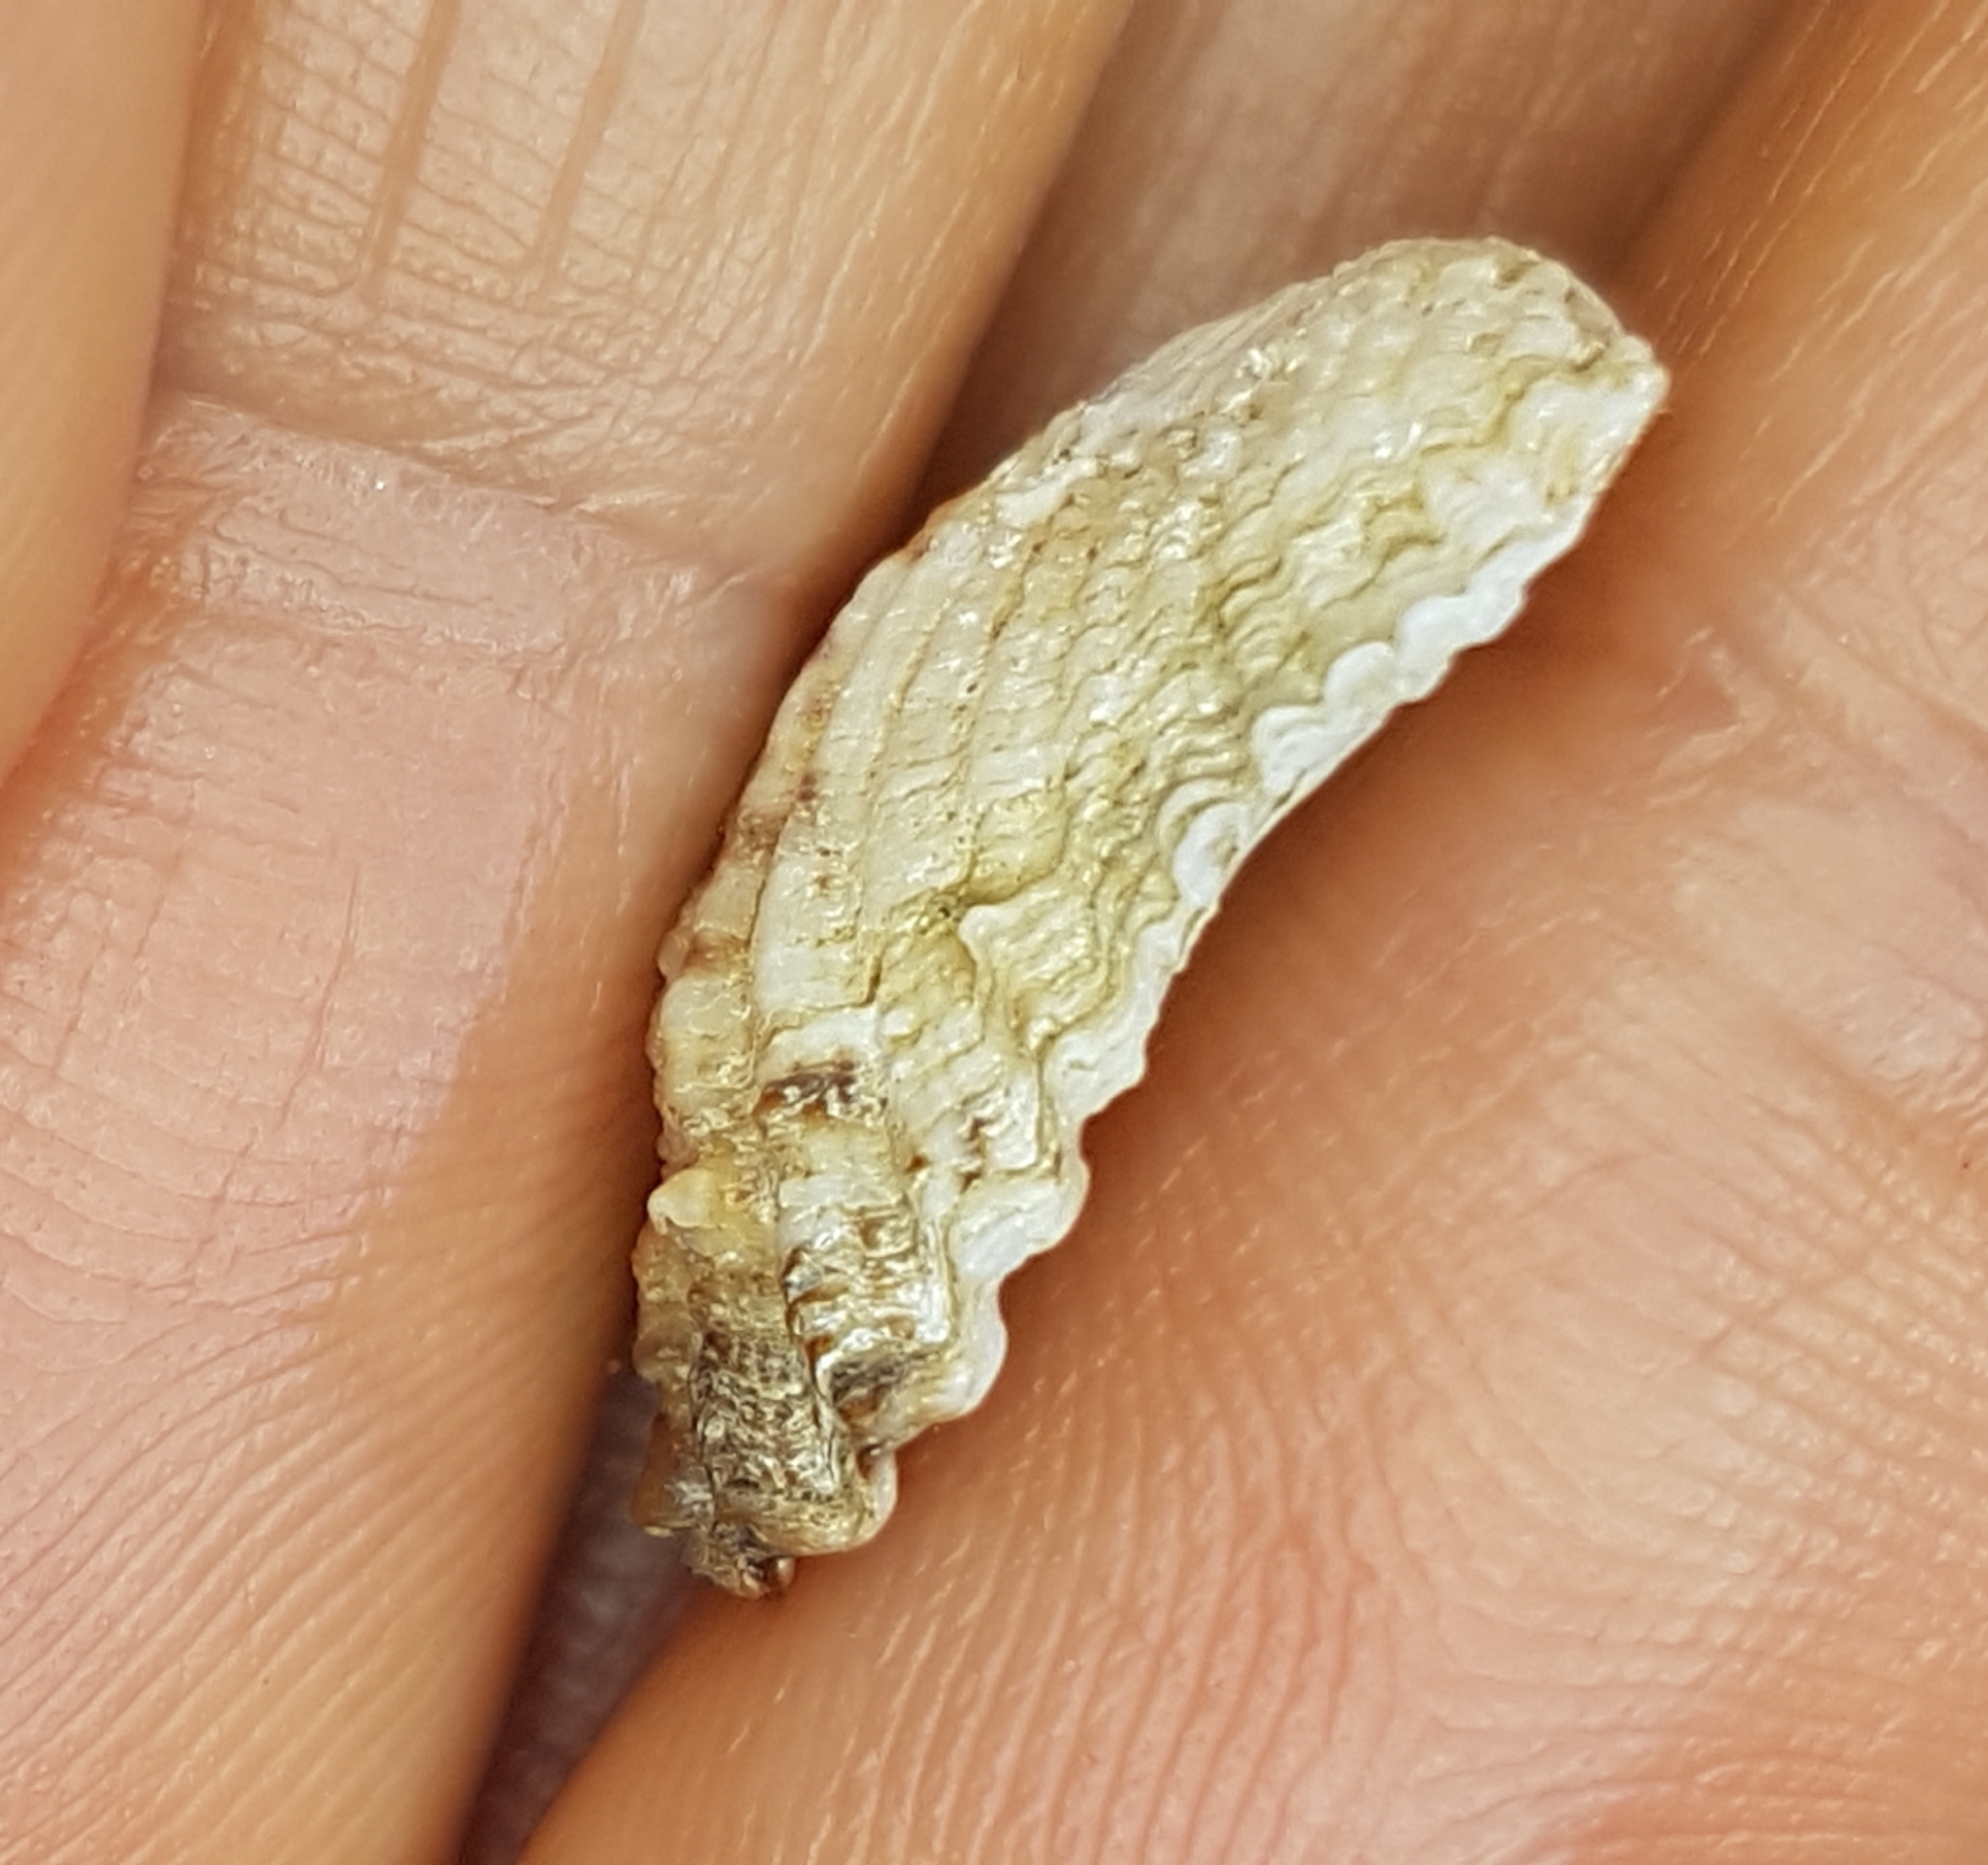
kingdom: Animalia
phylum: Mollusca
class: Bivalvia
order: Carditida
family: Carditidae
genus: Cardita
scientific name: Cardita calyculata
